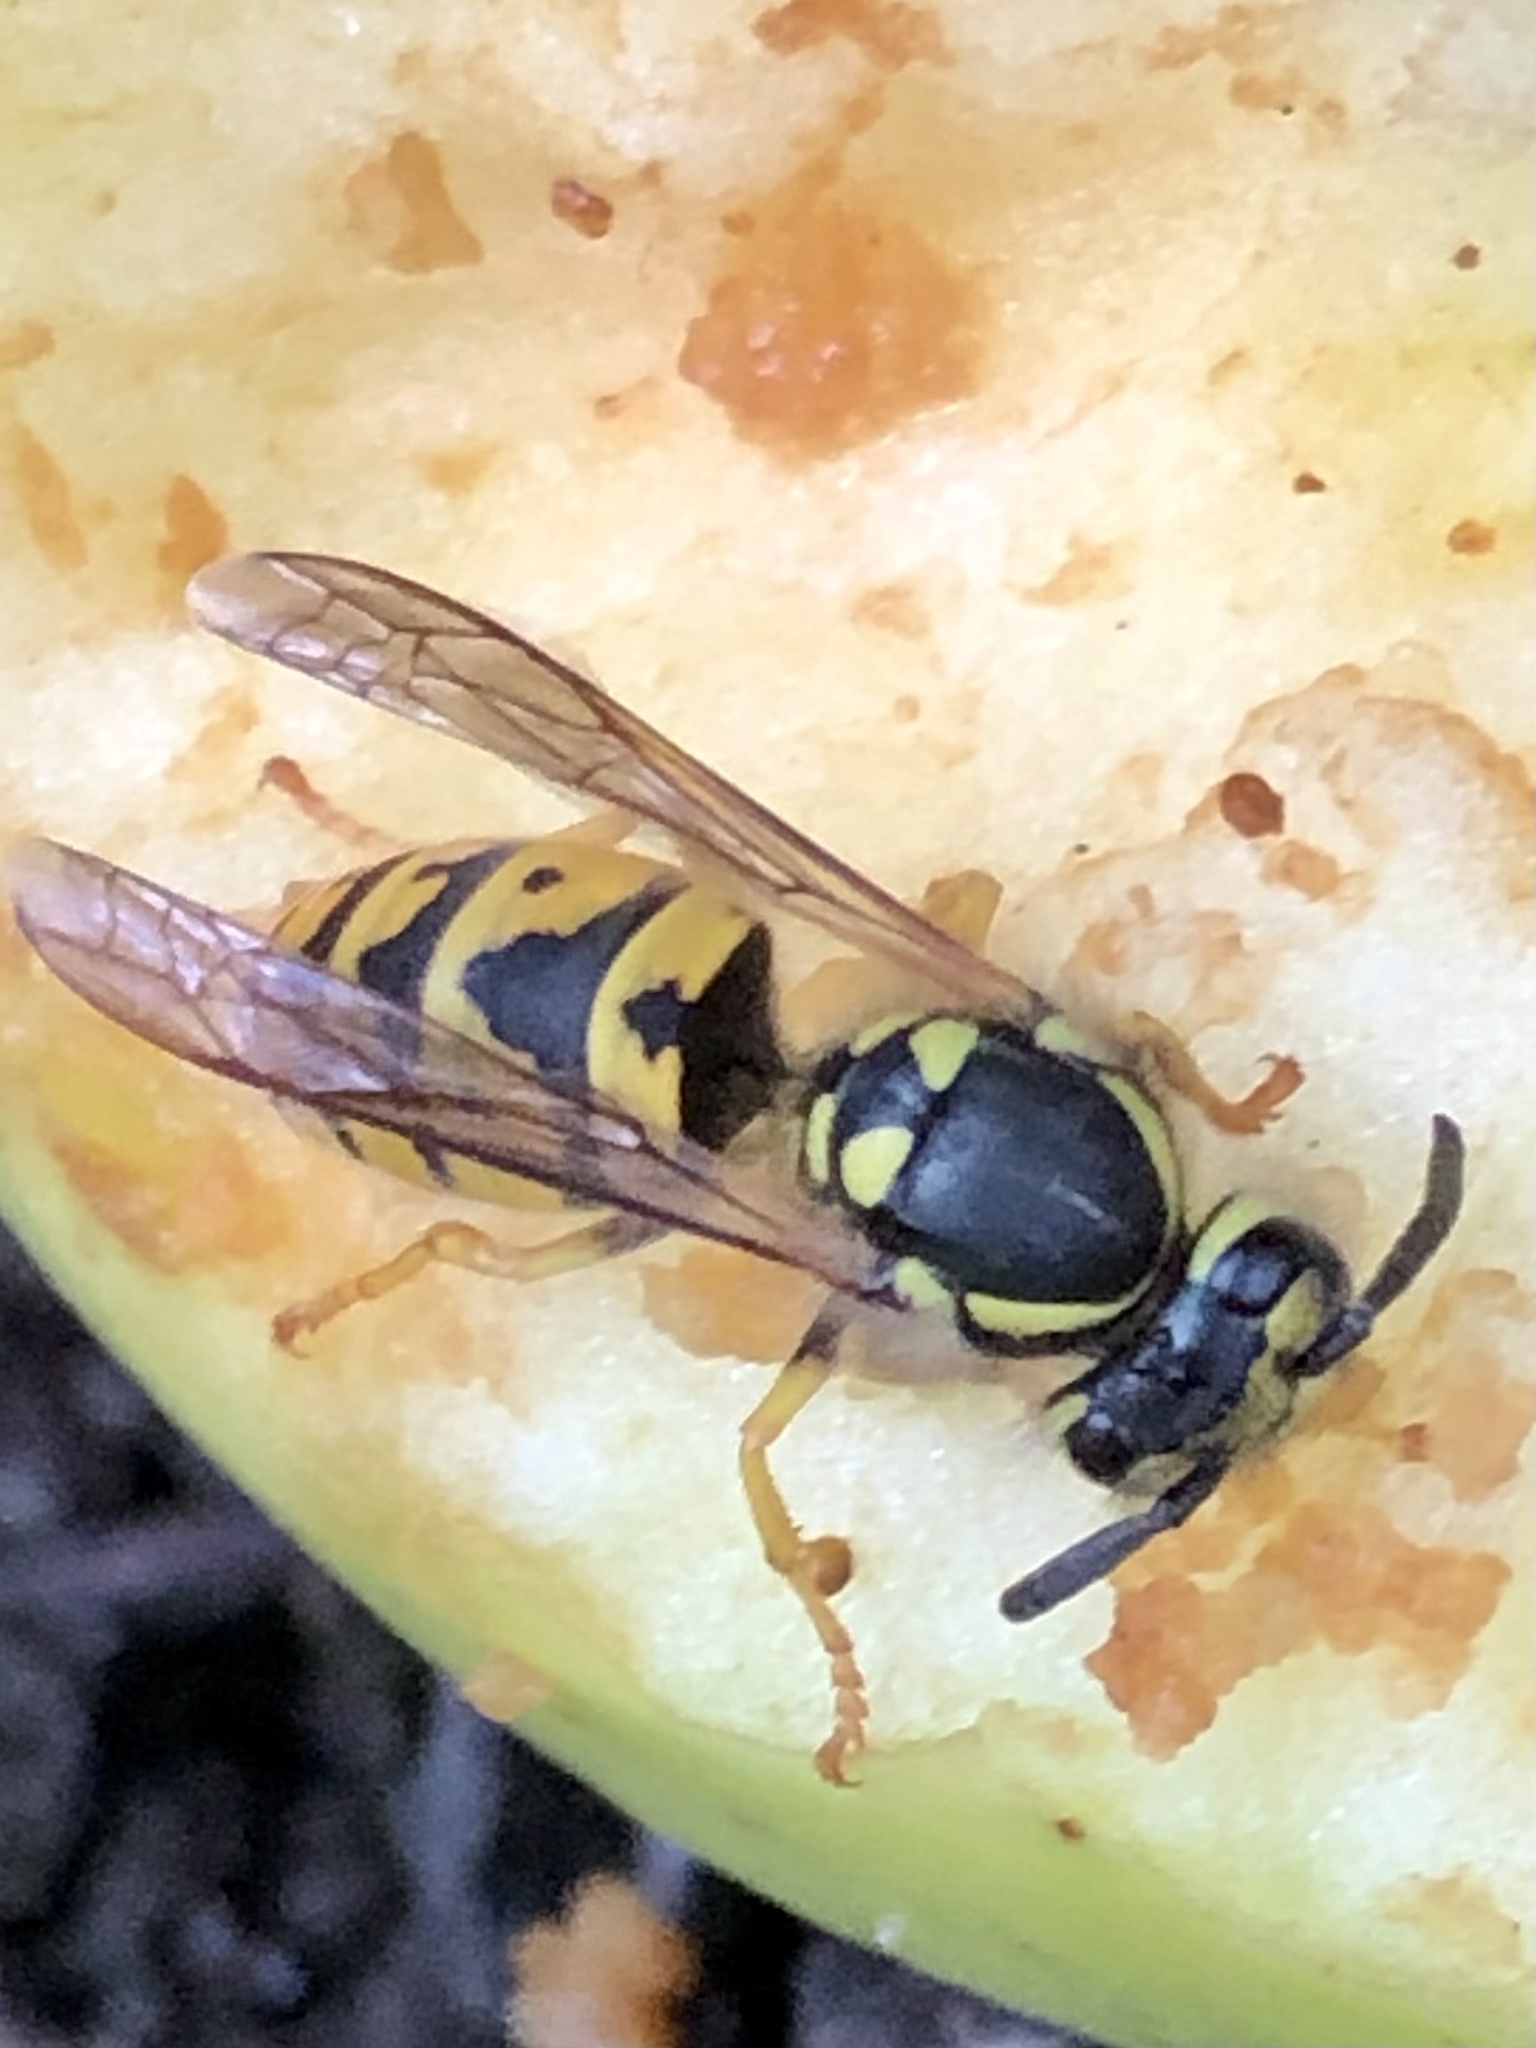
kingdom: Animalia
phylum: Arthropoda
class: Insecta
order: Hymenoptera
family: Vespidae
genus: Vespula
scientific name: Vespula germanica
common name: German wasp
